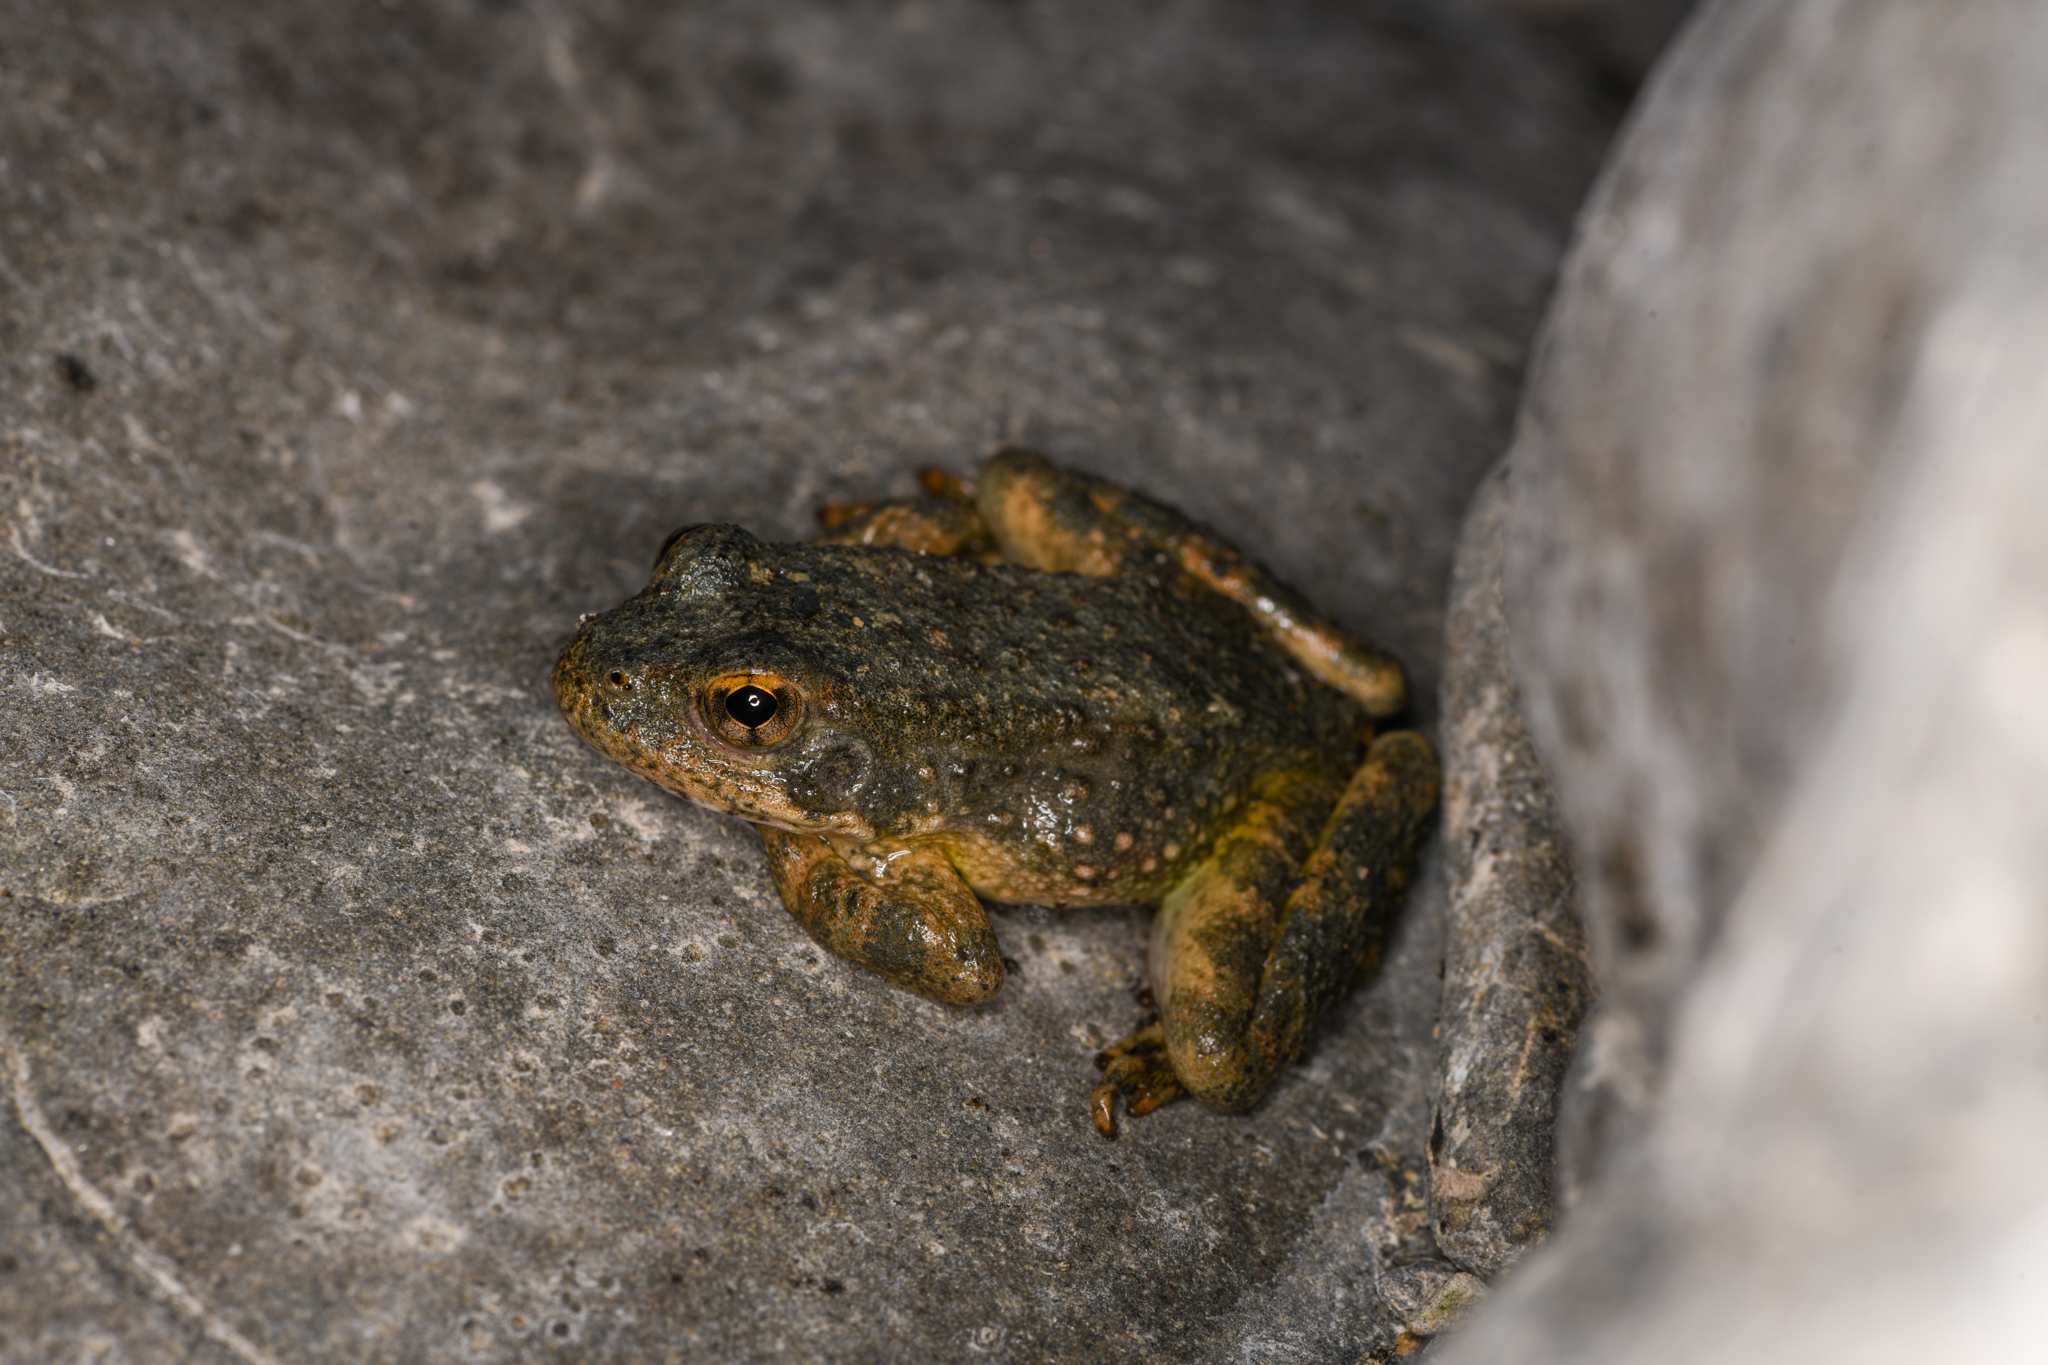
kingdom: Animalia
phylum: Chordata
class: Amphibia
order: Anura
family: Ranidae
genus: Rana
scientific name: Rana boylii
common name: Foothill yellow-legged frog
